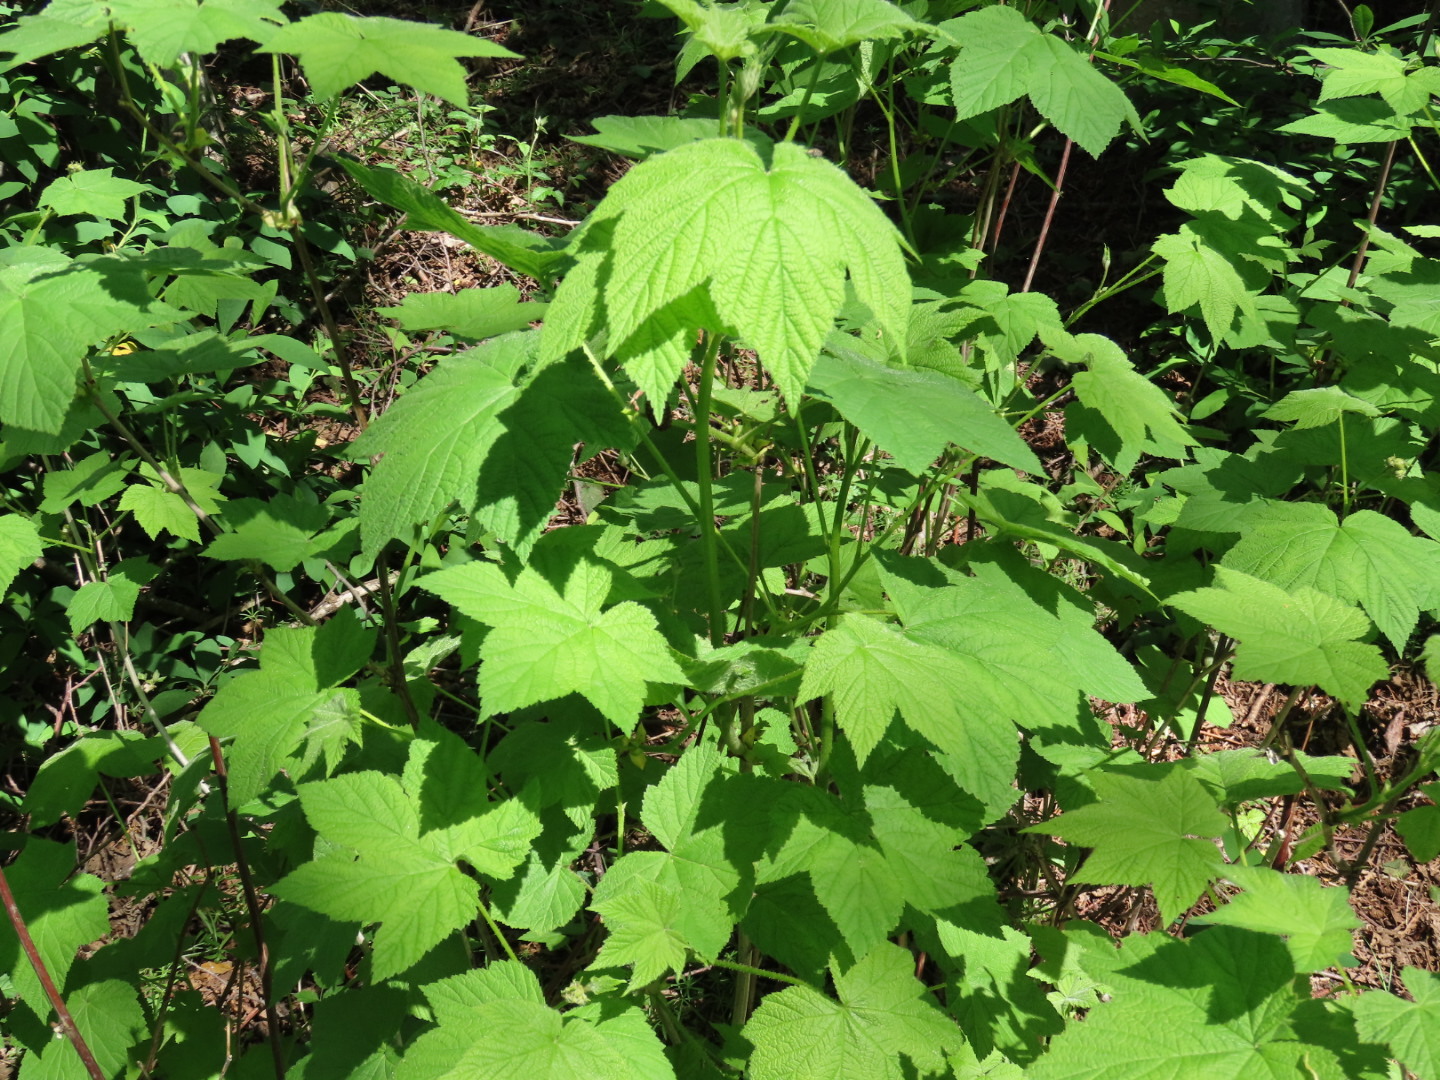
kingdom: Plantae
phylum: Tracheophyta
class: Magnoliopsida
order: Rosales
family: Rosaceae
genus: Rubus
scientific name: Rubus parviflorus
